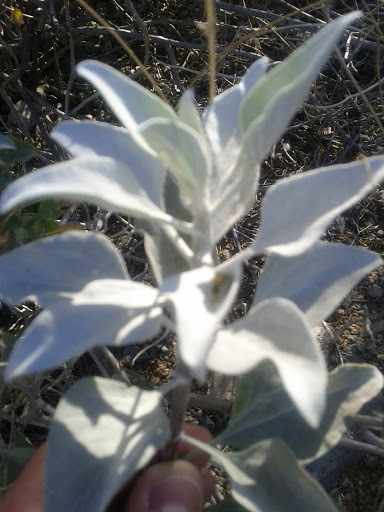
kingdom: Plantae
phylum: Tracheophyta
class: Magnoliopsida
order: Asterales
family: Asteraceae
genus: Encelia
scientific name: Encelia farinosa
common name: Brittlebush
